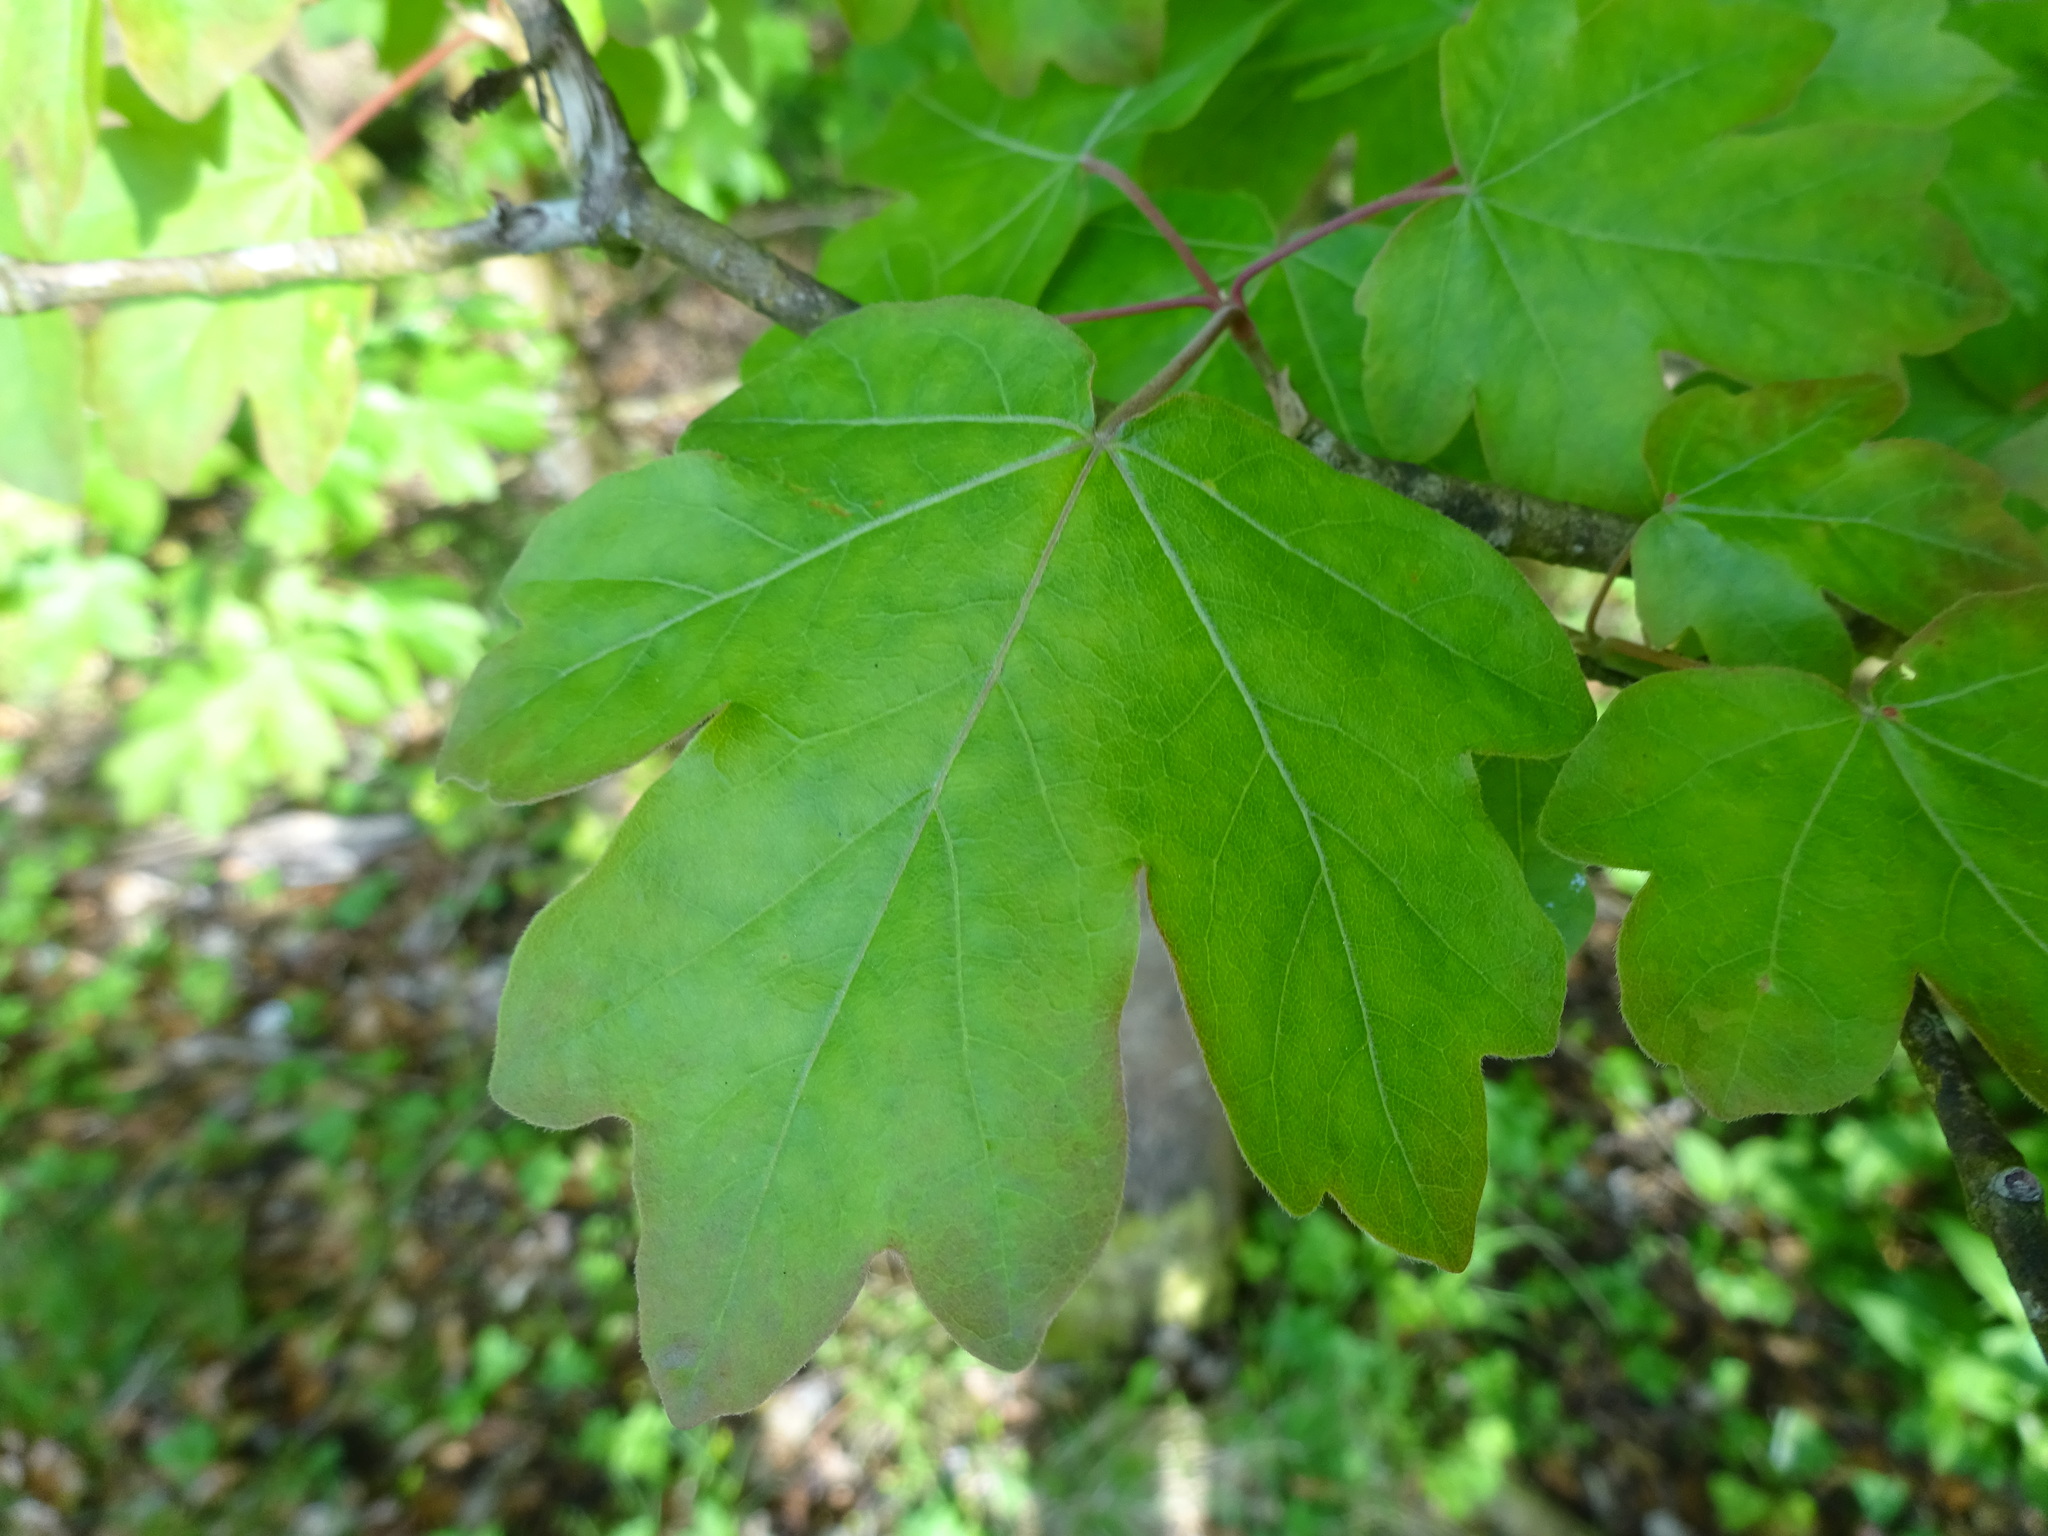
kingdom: Plantae
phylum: Tracheophyta
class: Magnoliopsida
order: Sapindales
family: Sapindaceae
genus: Acer
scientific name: Acer campestre
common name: Field maple
